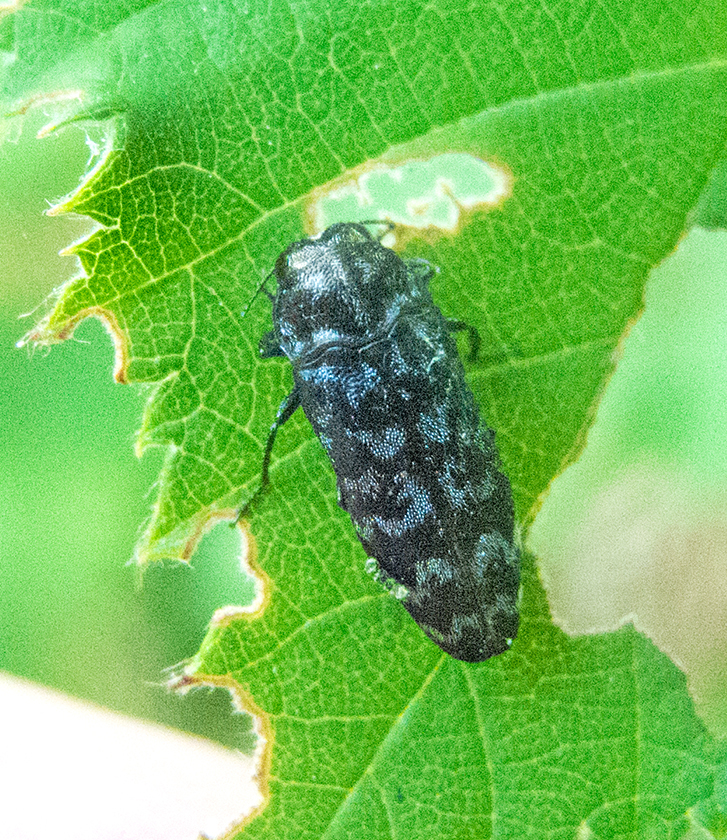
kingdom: Animalia
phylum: Arthropoda
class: Insecta
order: Coleoptera
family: Buprestidae
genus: Coraebus
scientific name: Coraebus rubi
